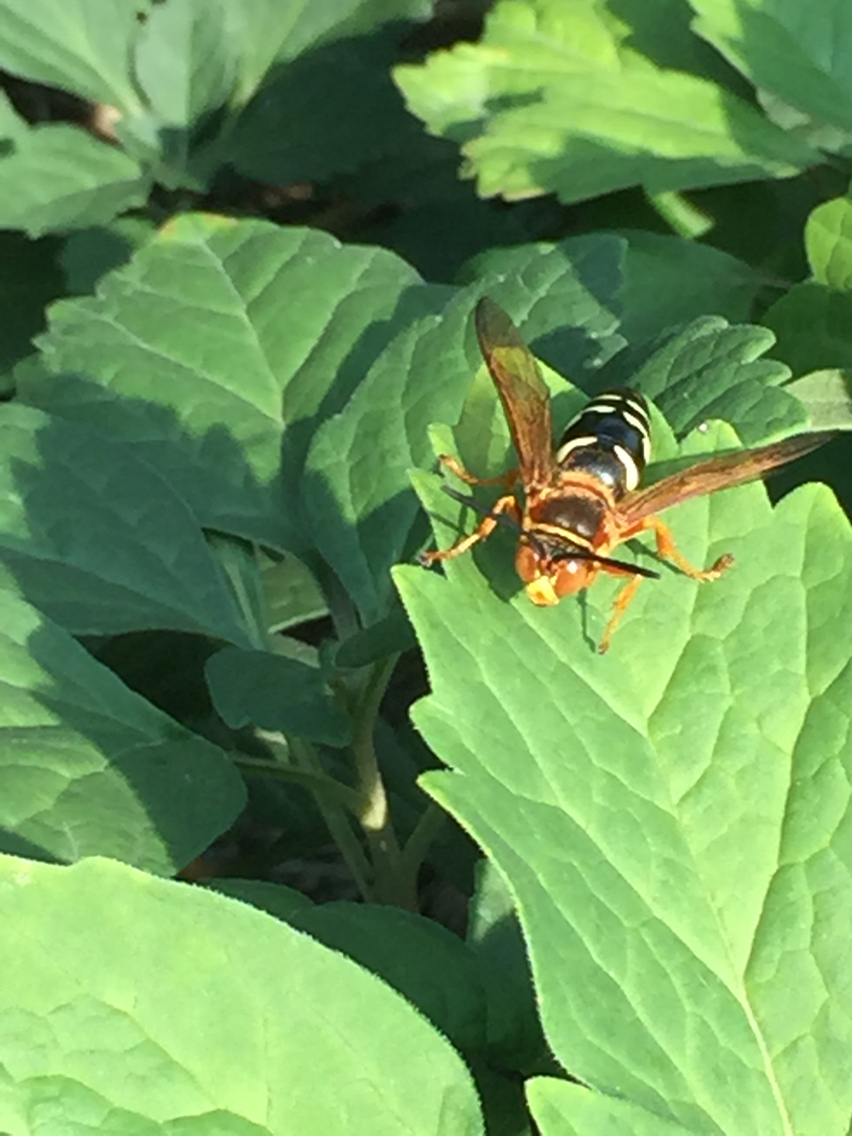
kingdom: Animalia
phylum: Arthropoda
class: Insecta
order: Hymenoptera
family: Crabronidae
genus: Sphecius
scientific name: Sphecius speciosus
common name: Cicada killer
